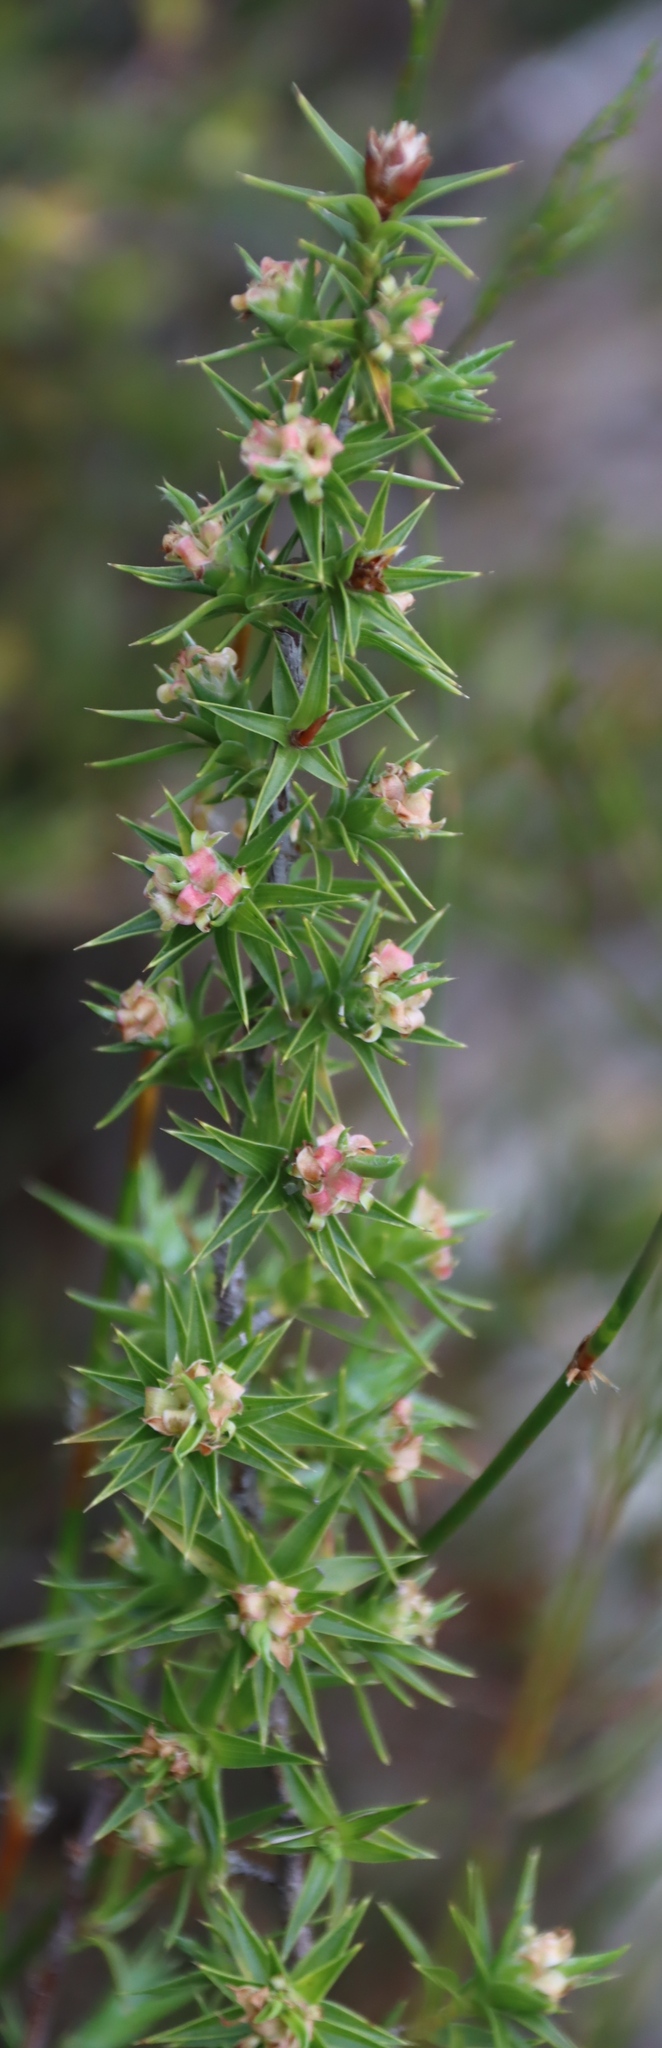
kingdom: Plantae
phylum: Tracheophyta
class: Magnoliopsida
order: Rosales
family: Rosaceae
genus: Cliffortia
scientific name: Cliffortia ruscifolia
